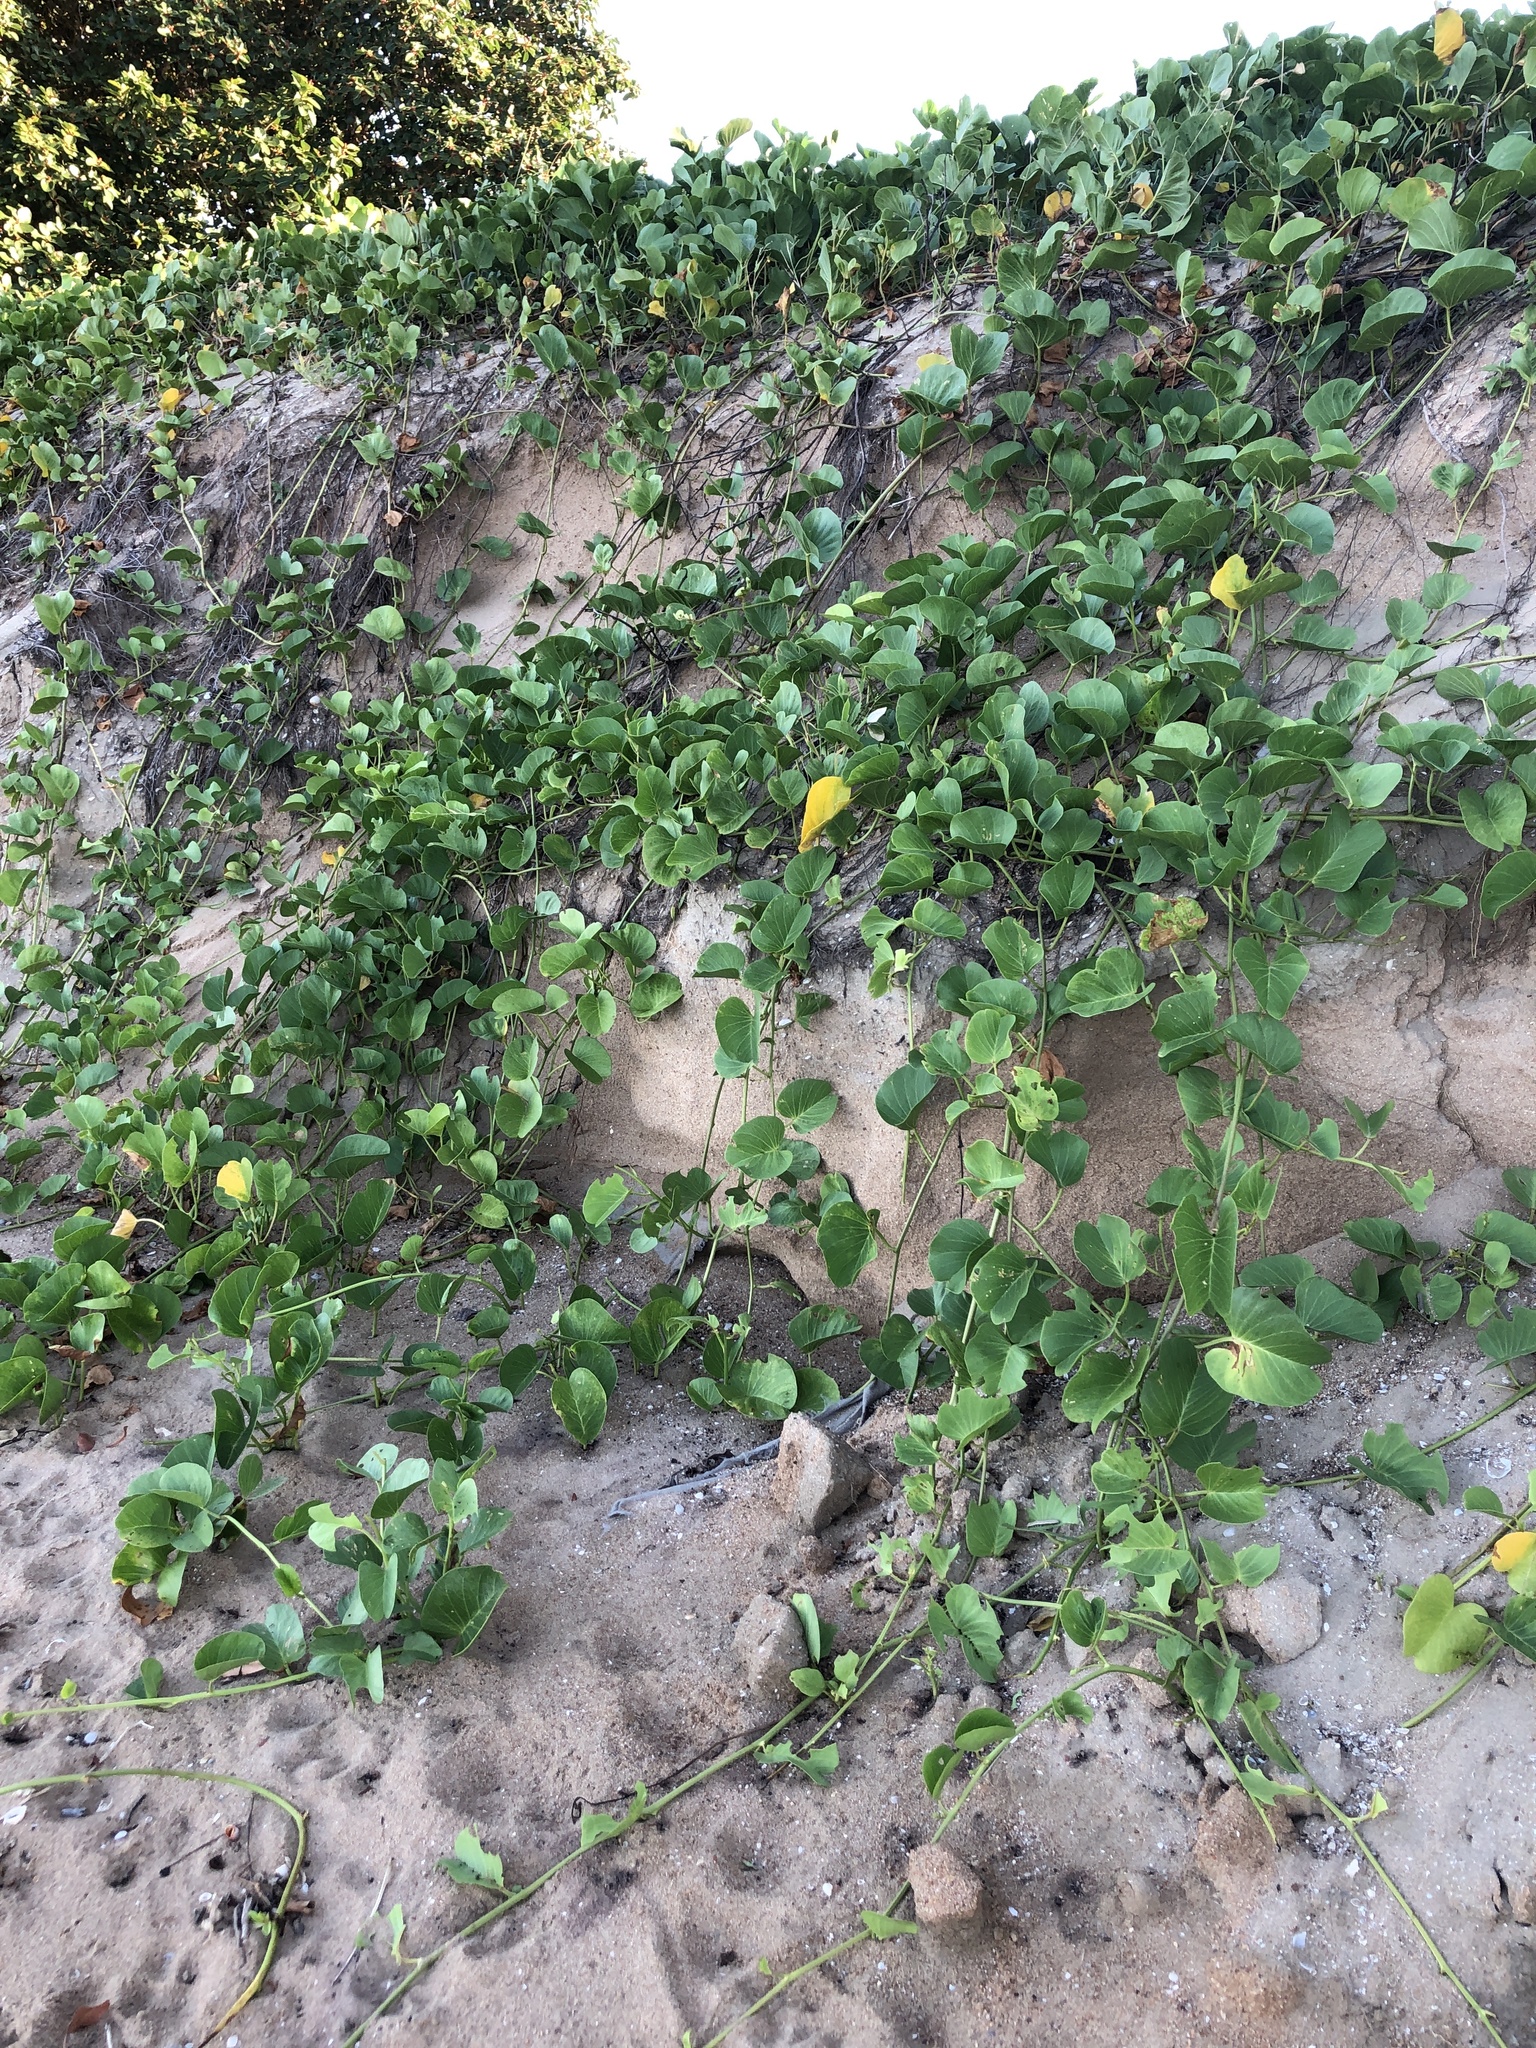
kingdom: Plantae
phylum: Tracheophyta
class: Magnoliopsida
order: Solanales
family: Convolvulaceae
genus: Ipomoea
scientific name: Ipomoea pes-caprae
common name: Beach morning glory
